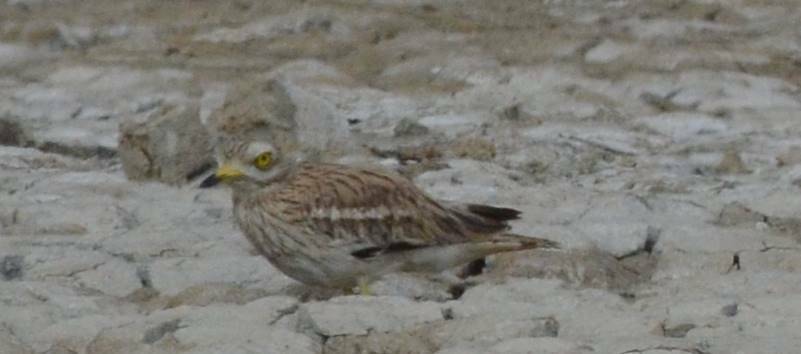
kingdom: Animalia
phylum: Chordata
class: Aves
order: Charadriiformes
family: Burhinidae
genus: Burhinus
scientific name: Burhinus oedicnemus
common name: Eurasian stone-curlew
